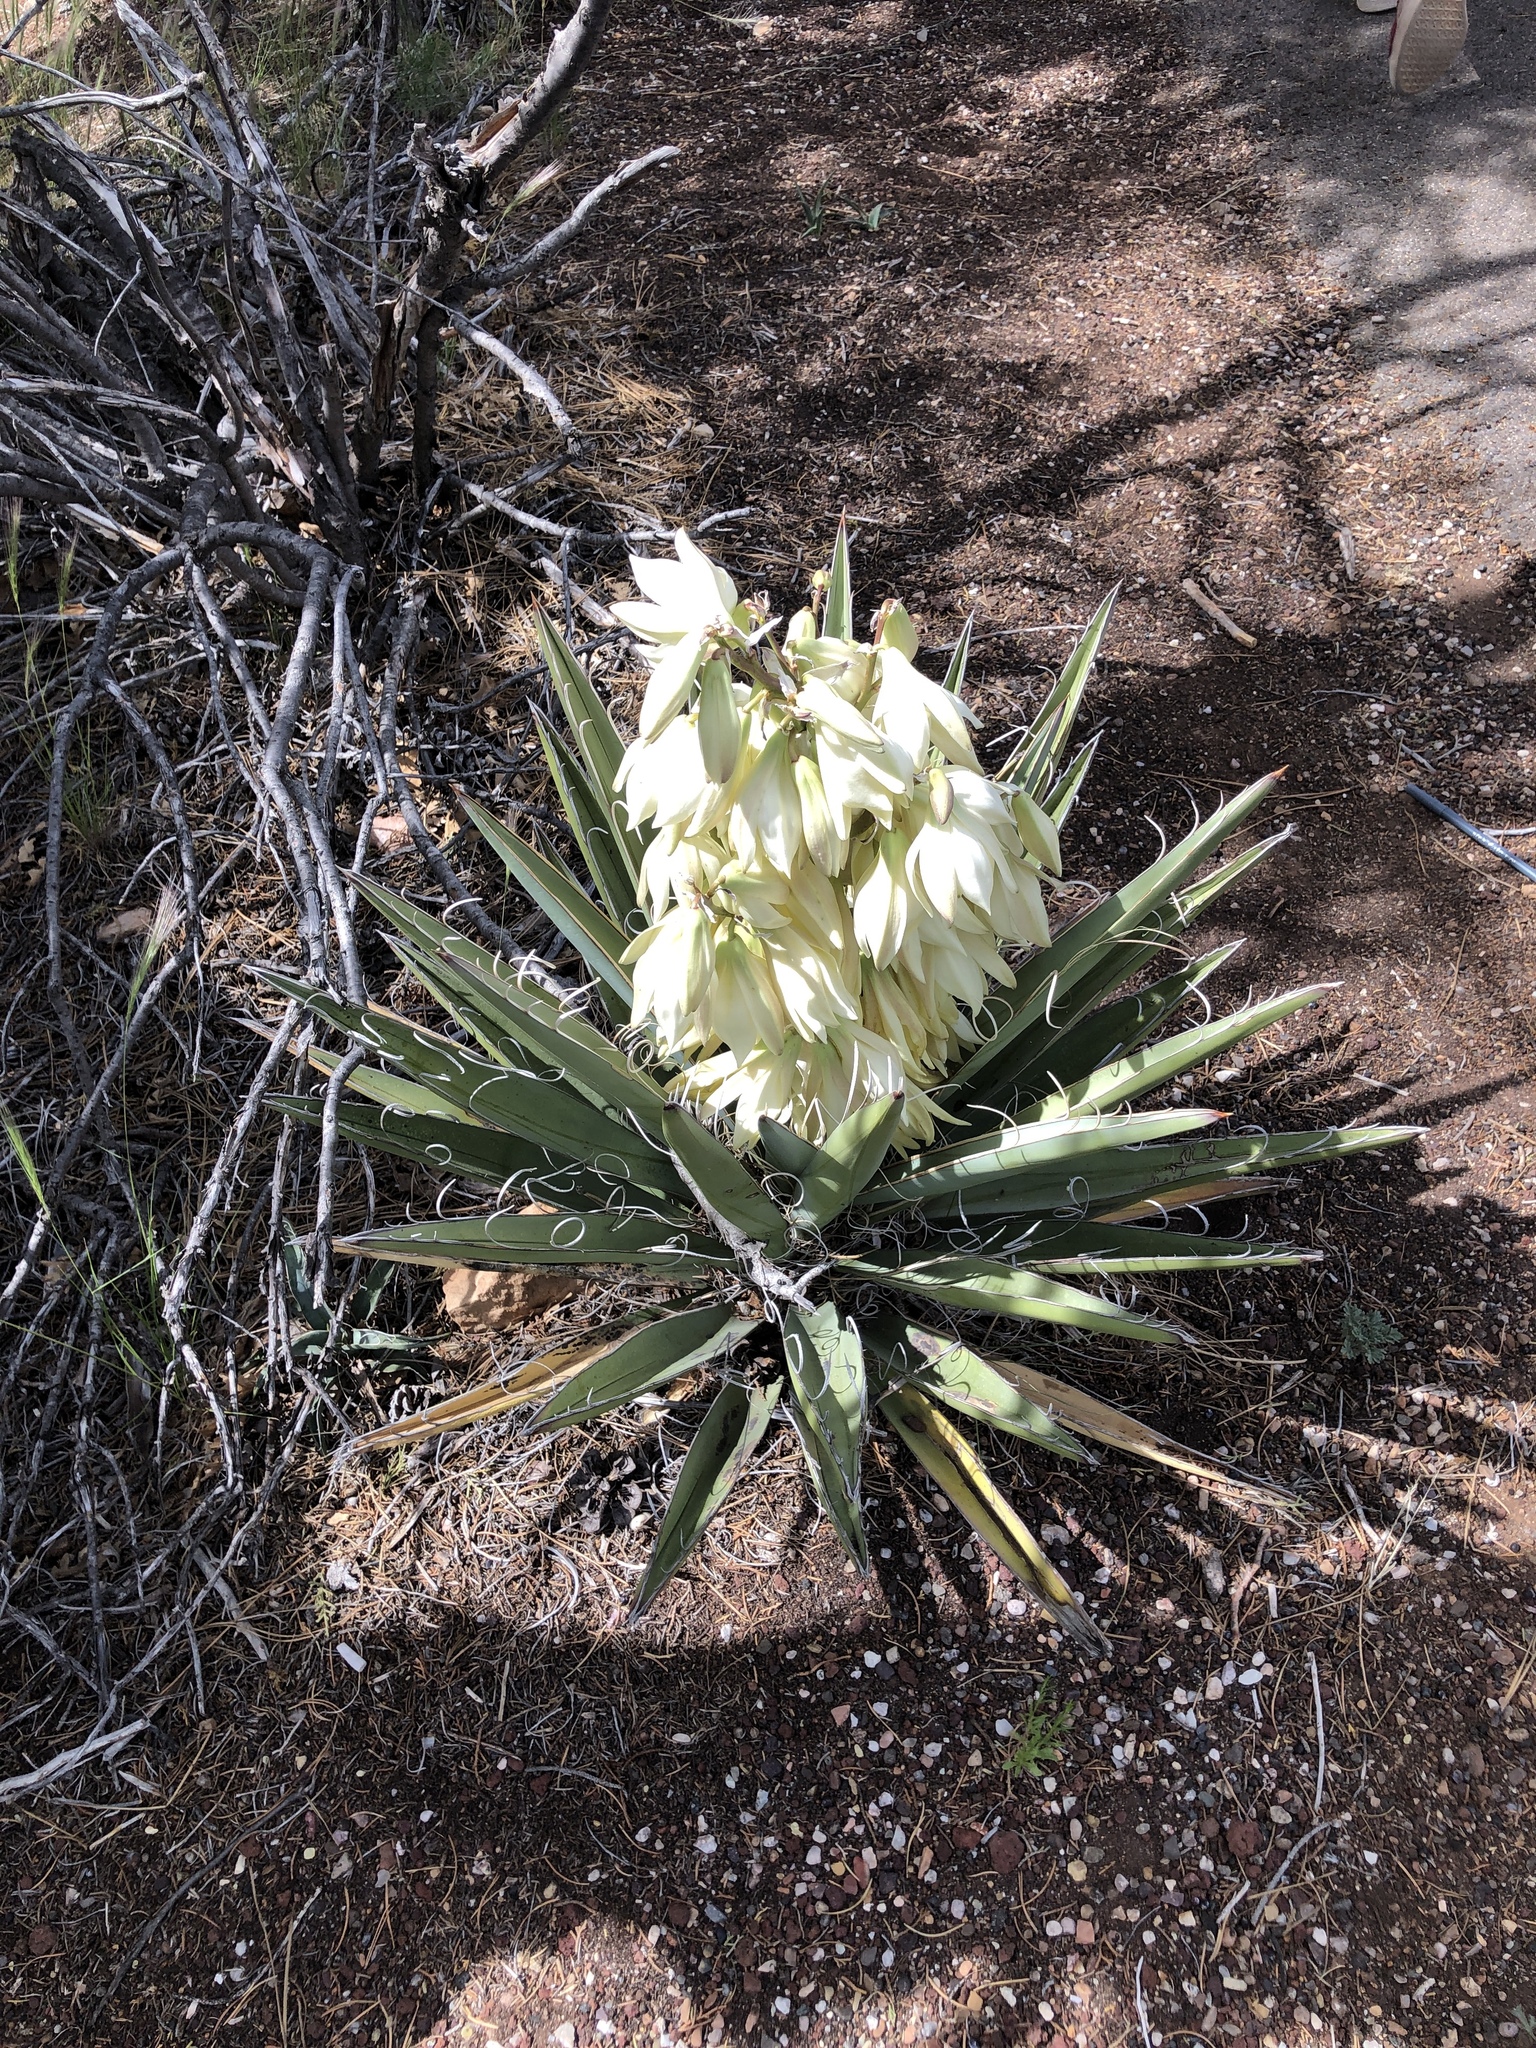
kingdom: Plantae
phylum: Tracheophyta
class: Liliopsida
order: Asparagales
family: Asparagaceae
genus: Yucca
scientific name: Yucca baccata
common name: Banana yucca
